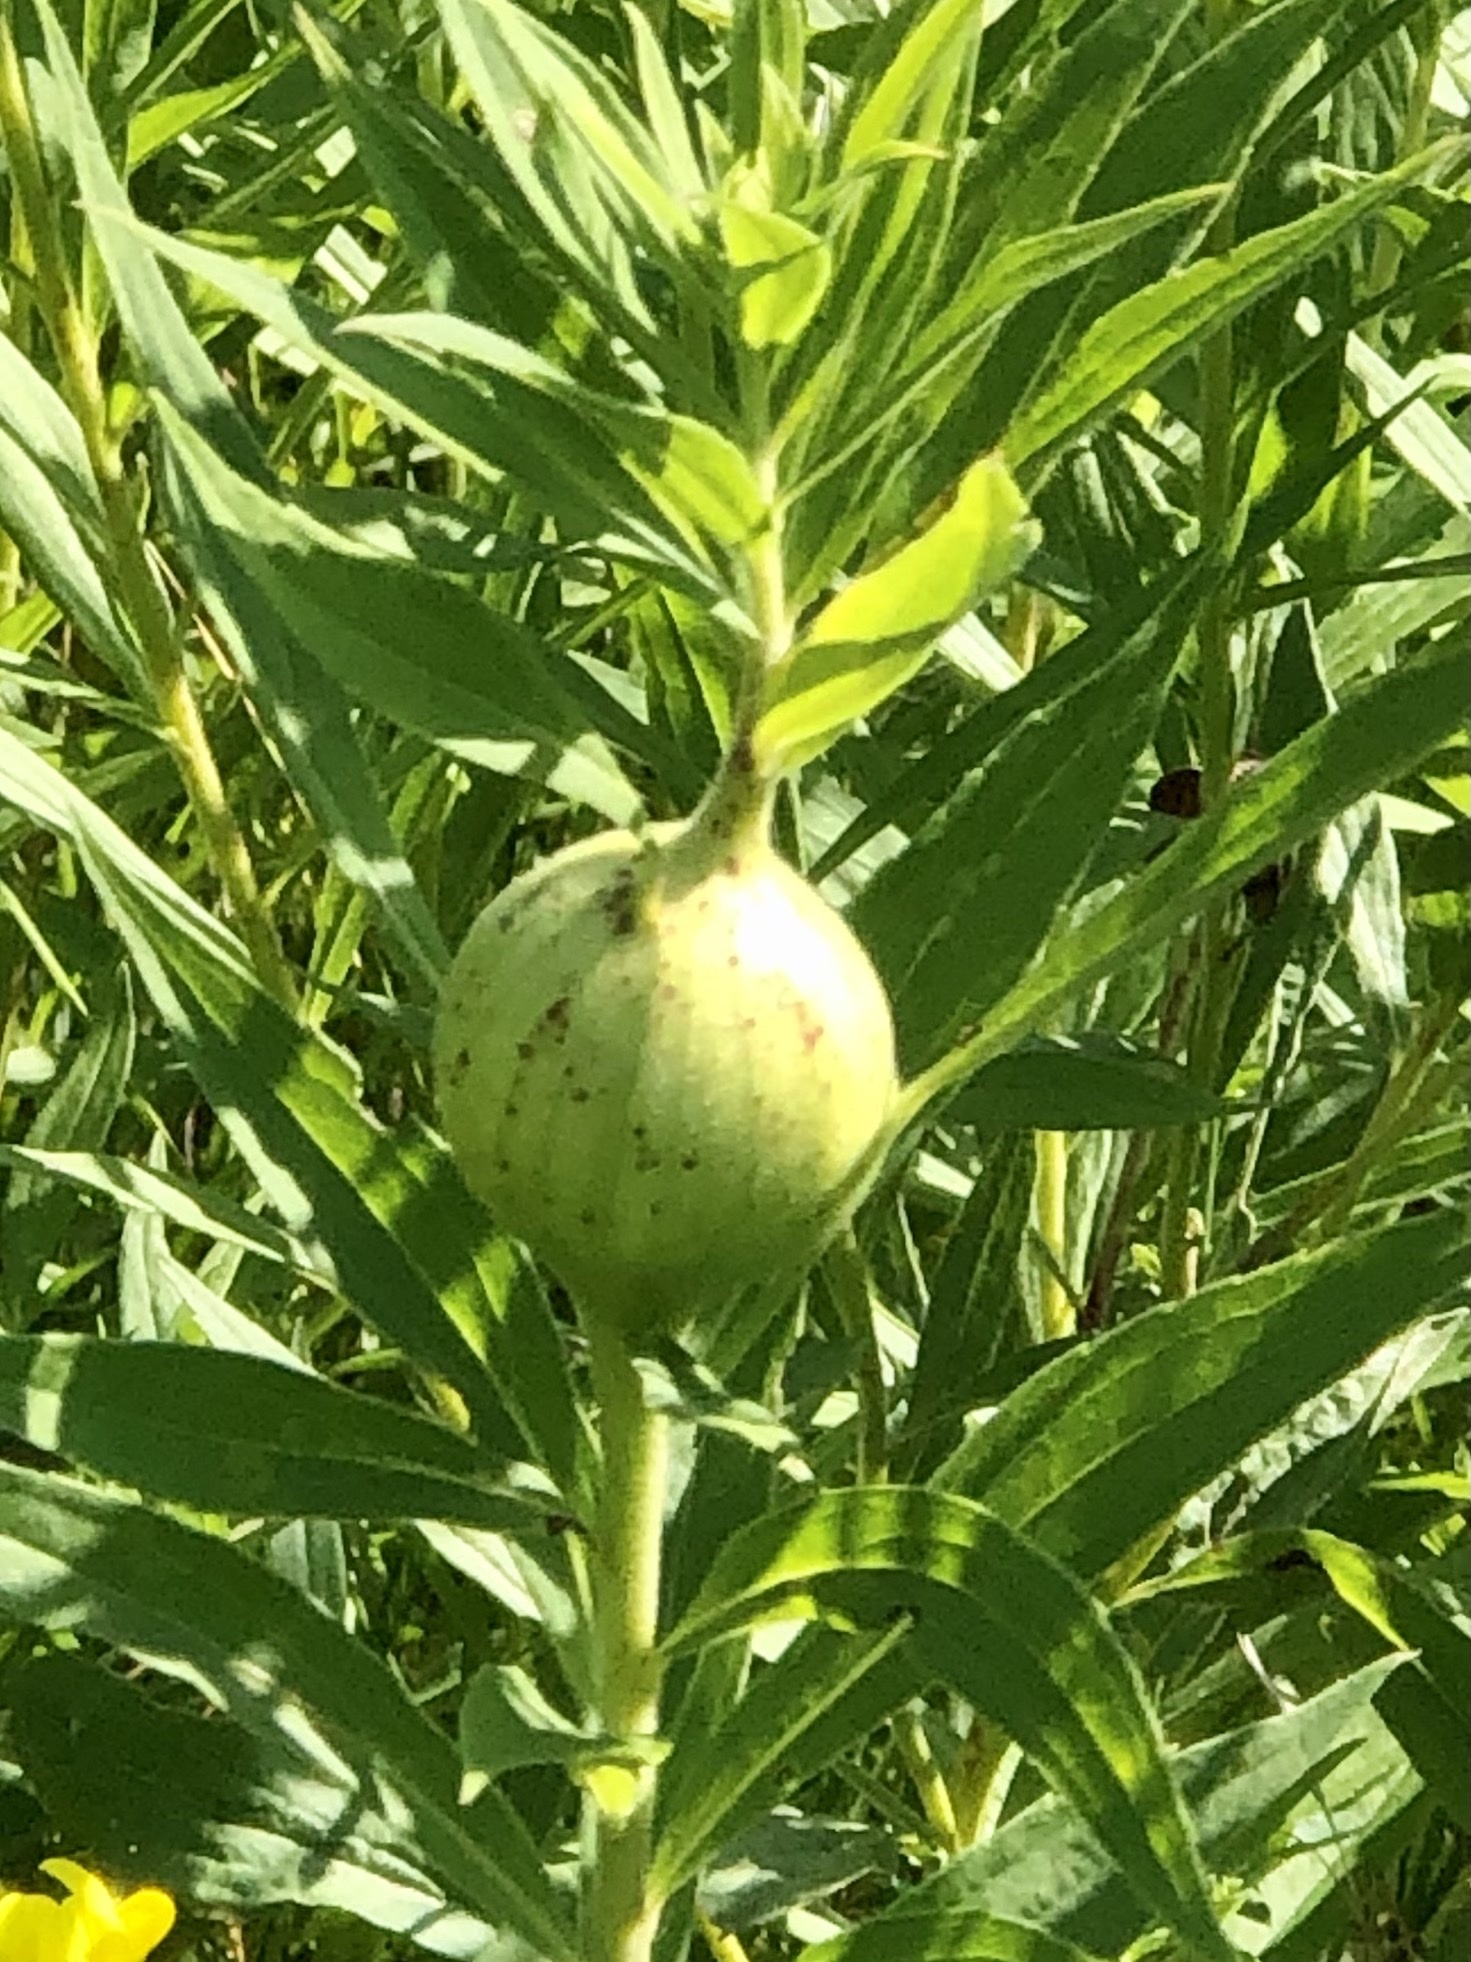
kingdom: Animalia
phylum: Arthropoda
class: Insecta
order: Diptera
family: Tephritidae
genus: Eurosta
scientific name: Eurosta solidaginis
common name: Goldenrod gall fly
